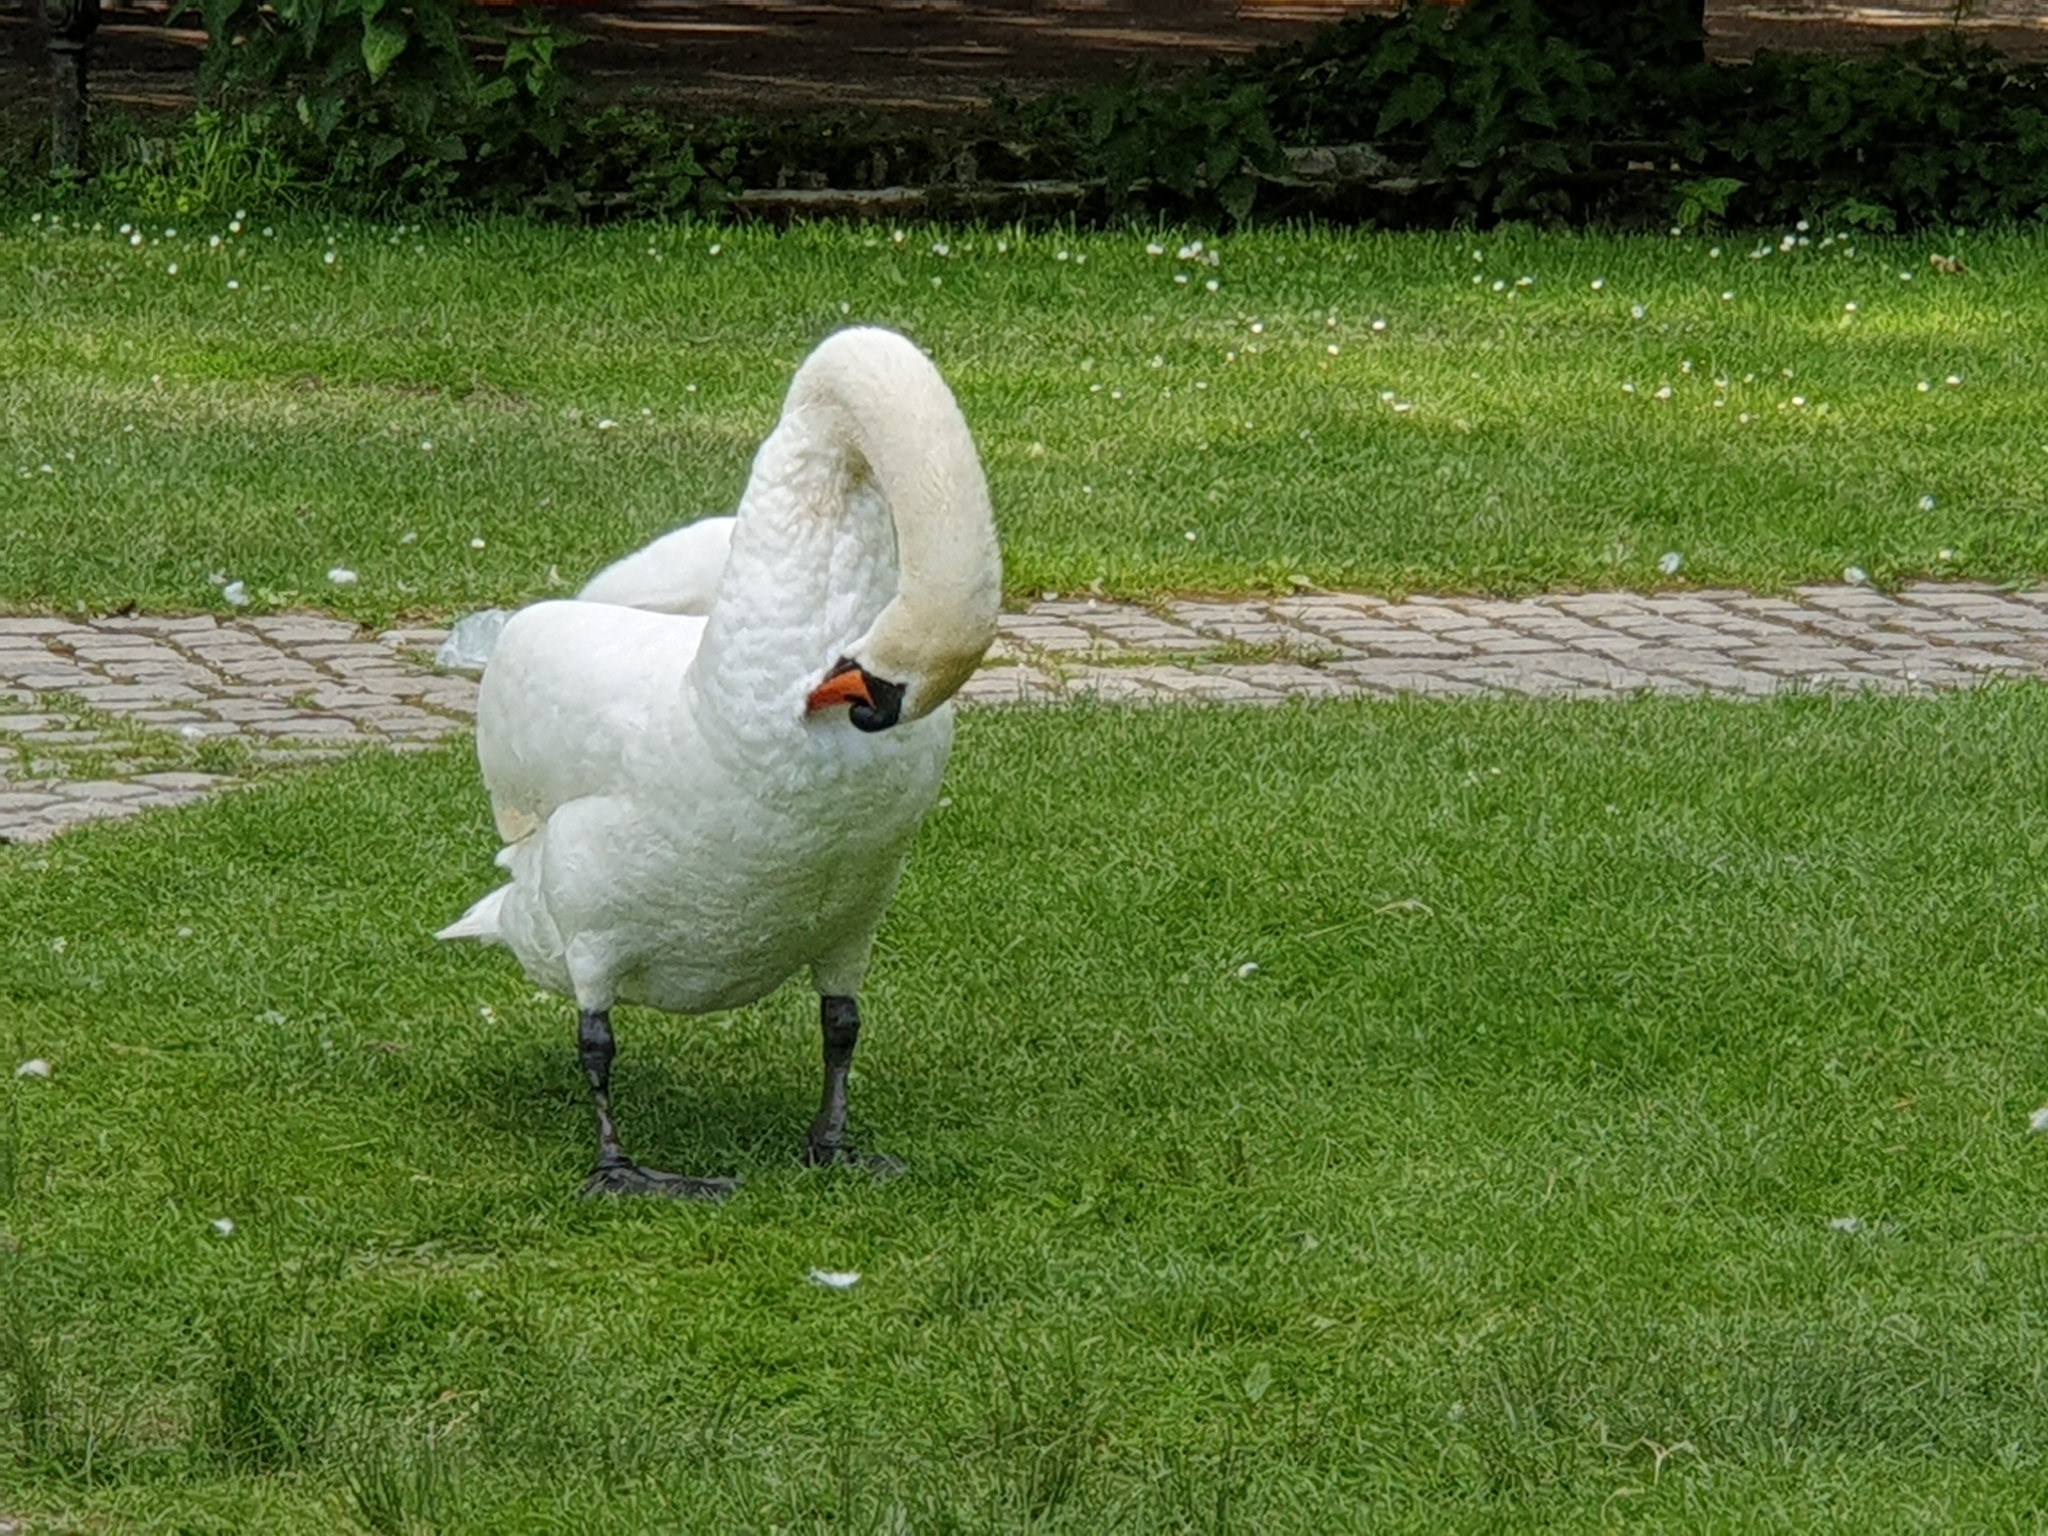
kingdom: Animalia
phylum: Chordata
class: Aves
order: Anseriformes
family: Anatidae
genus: Cygnus
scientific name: Cygnus olor
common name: Mute swan
